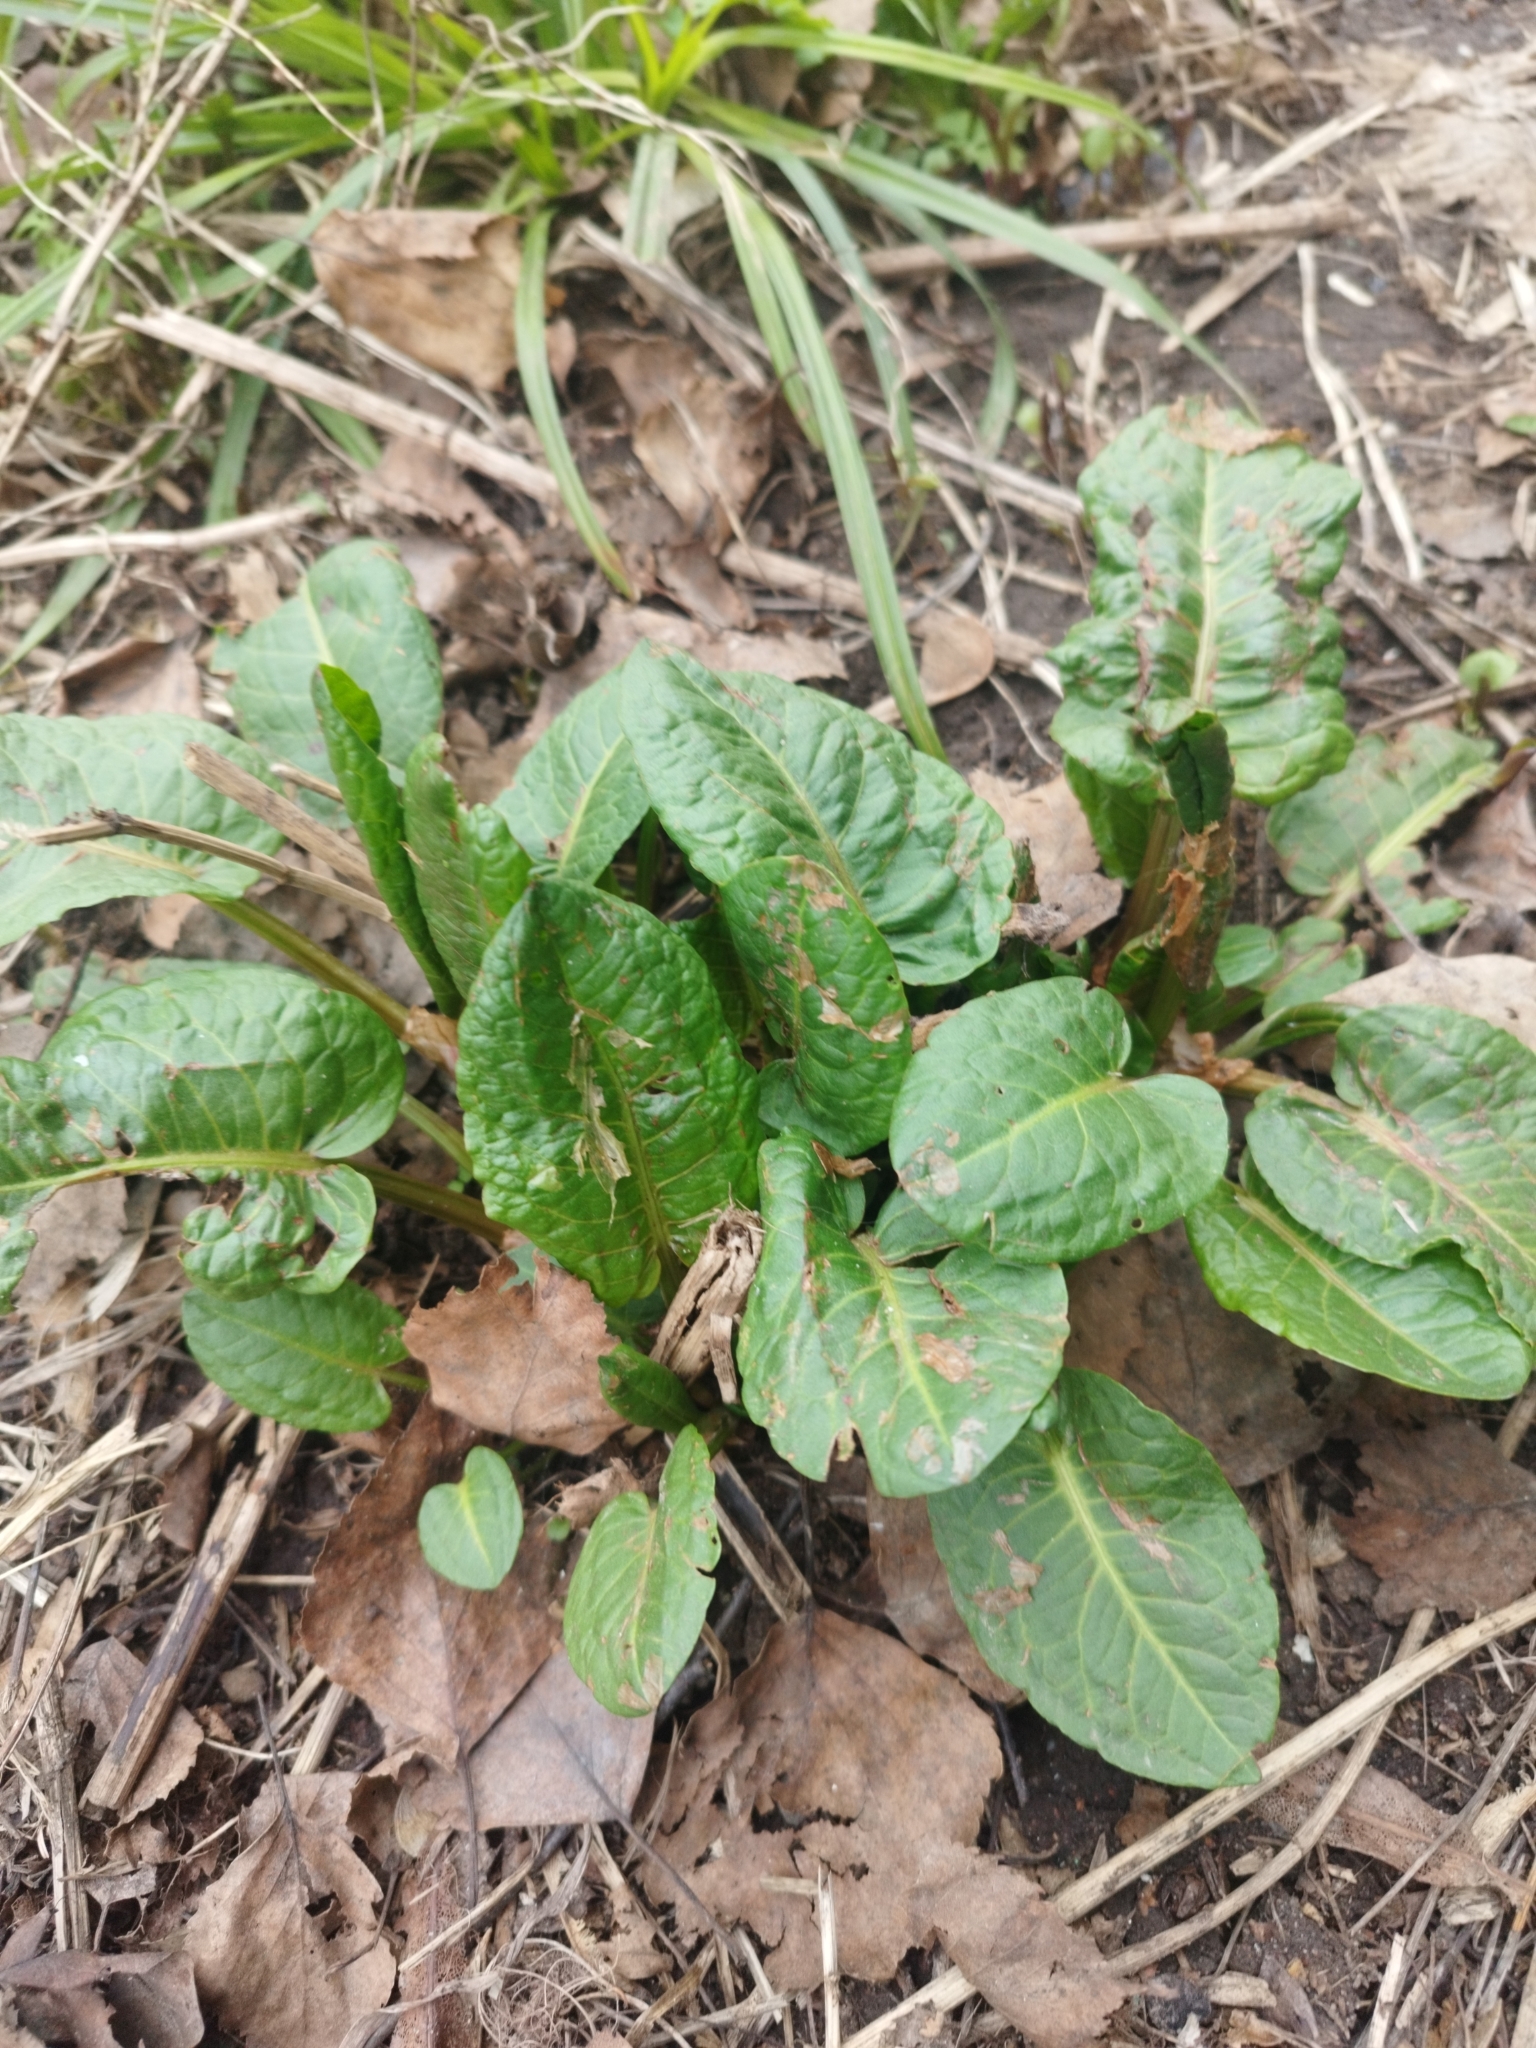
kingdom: Plantae
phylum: Tracheophyta
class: Magnoliopsida
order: Caryophyllales
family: Polygonaceae
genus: Rumex
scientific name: Rumex obtusifolius
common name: Bitter dock
